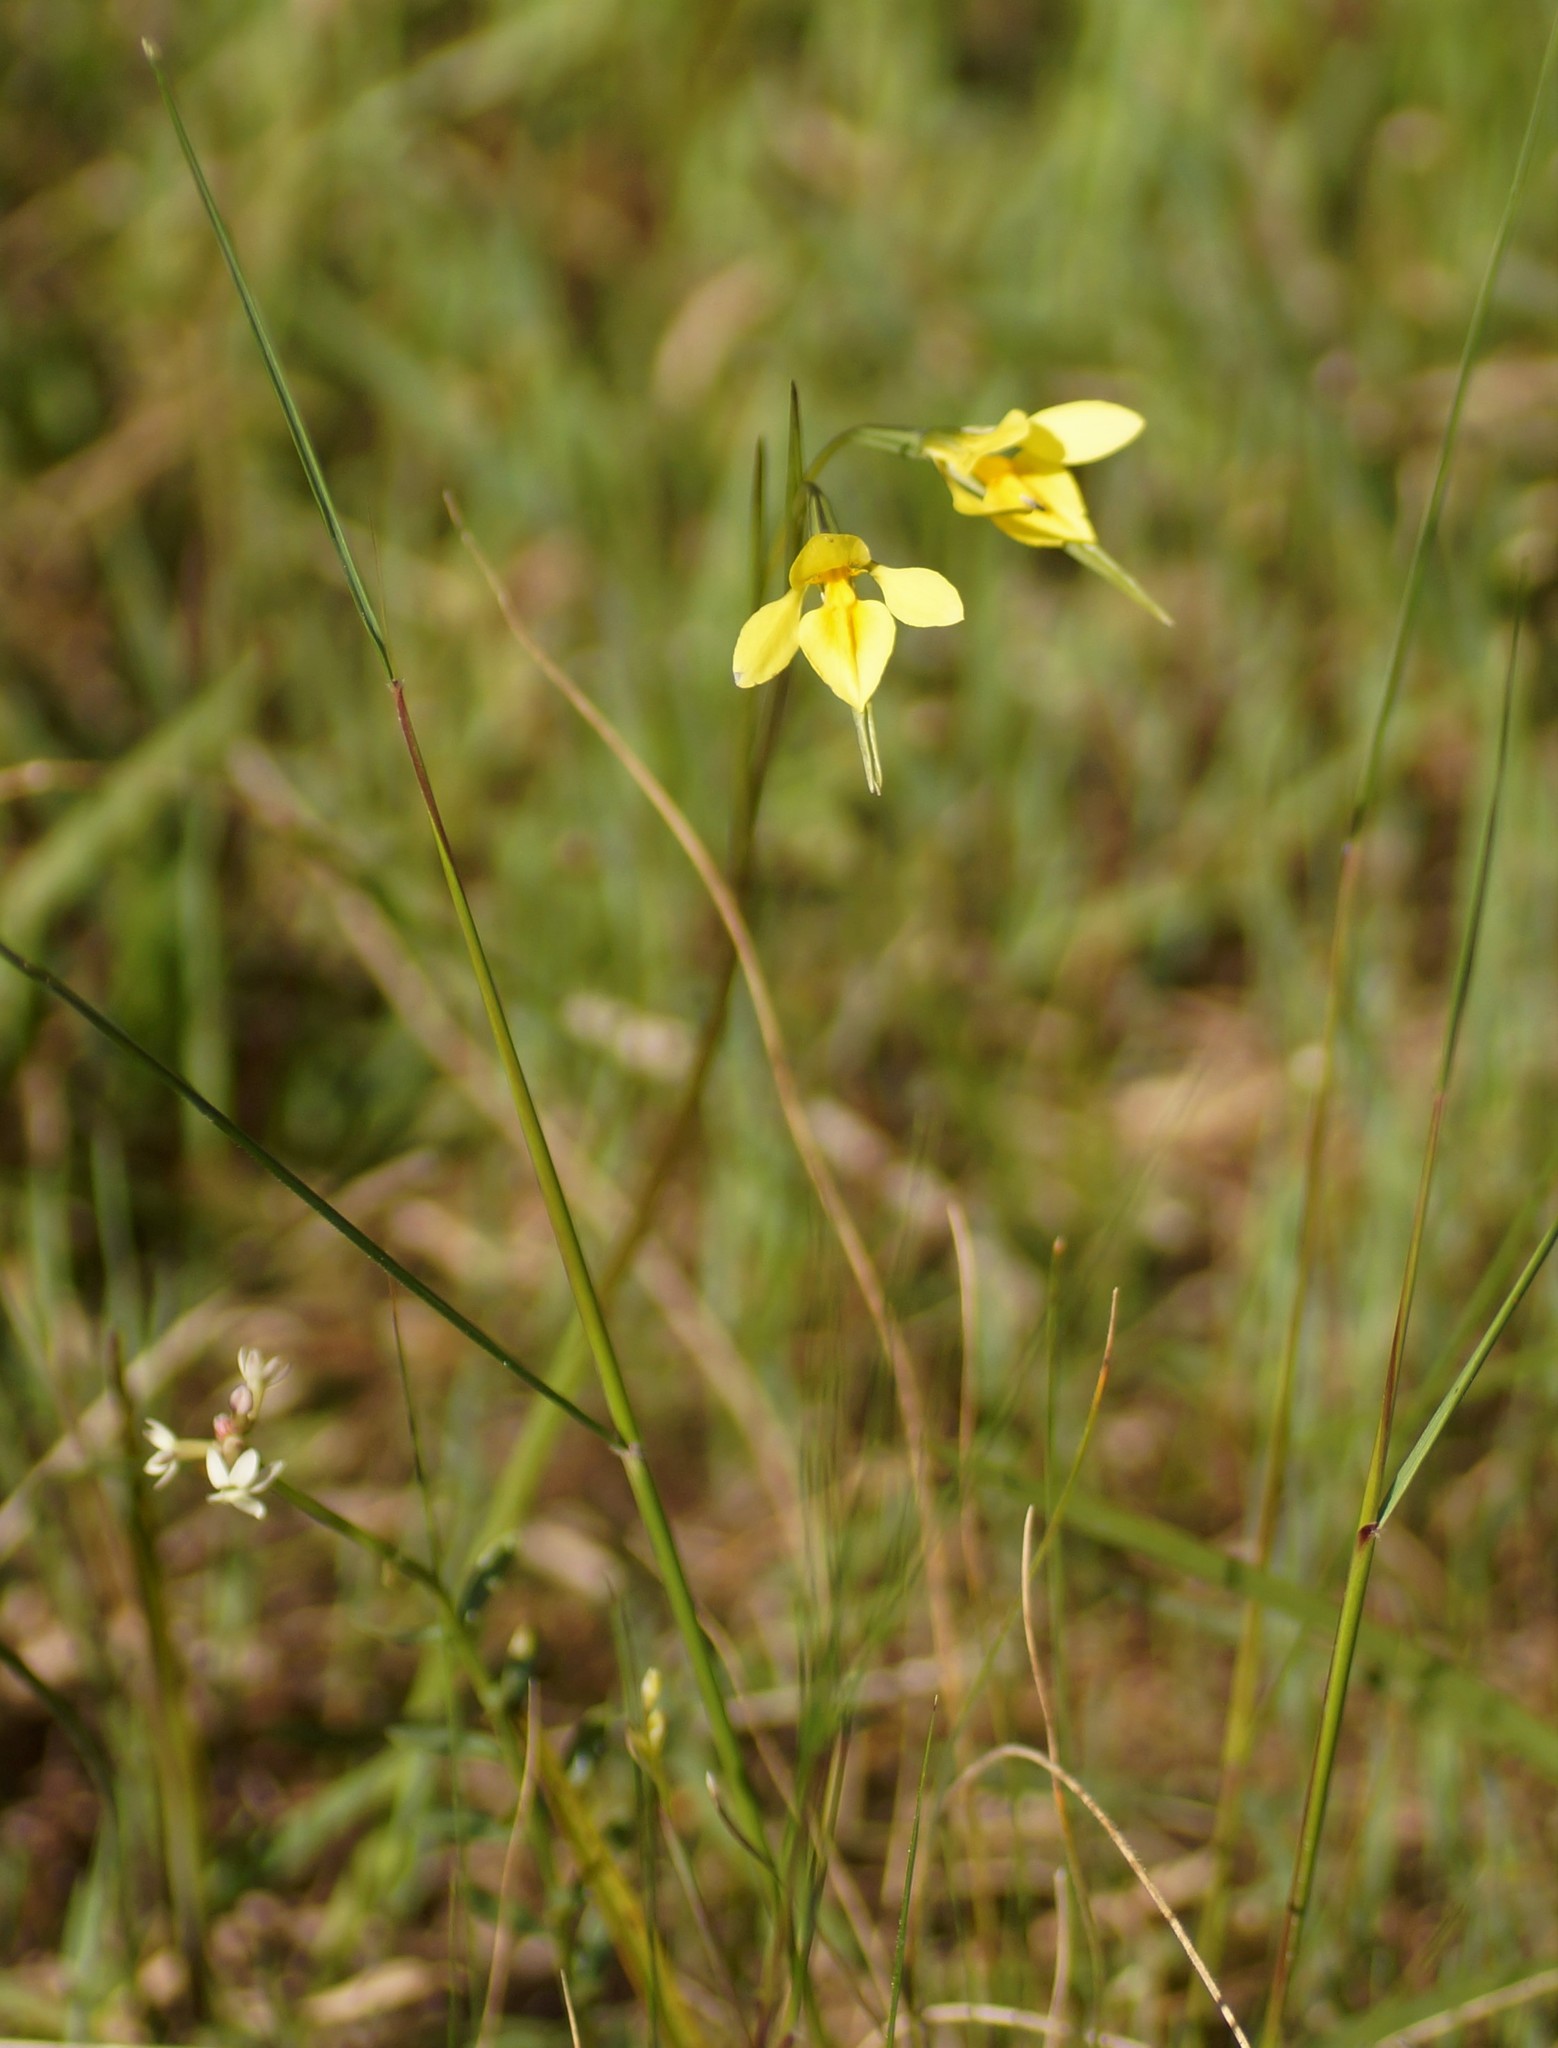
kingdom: Plantae
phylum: Tracheophyta
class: Liliopsida
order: Asparagales
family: Orchidaceae
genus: Diuris
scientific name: Diuris chryseopsis
